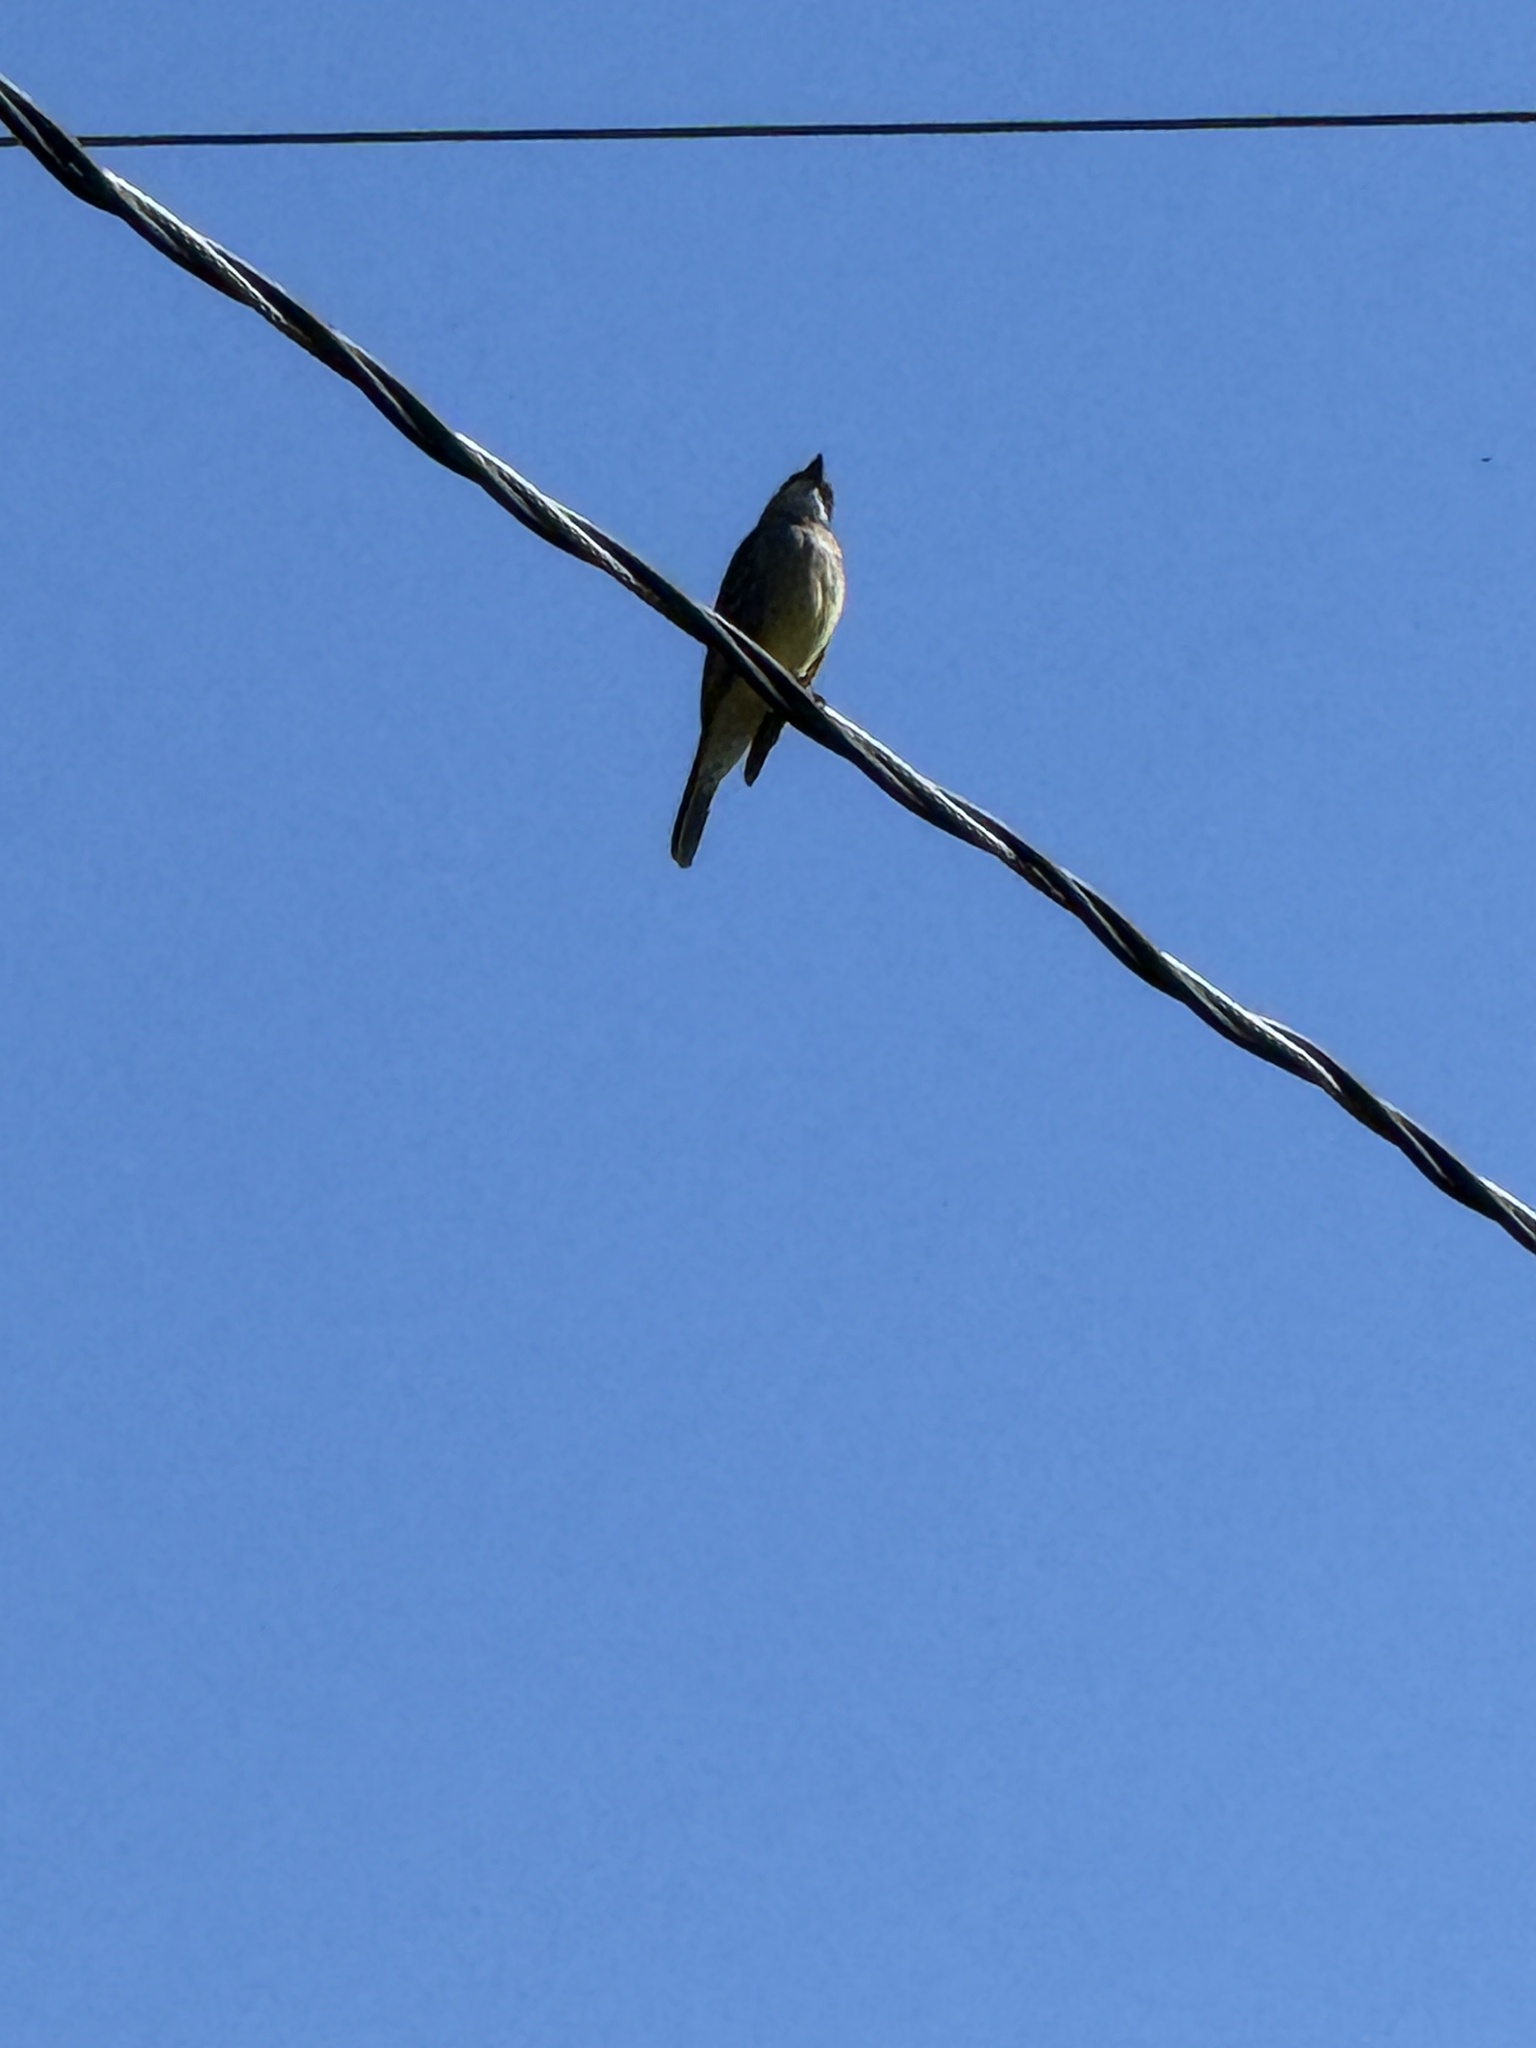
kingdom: Animalia
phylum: Chordata
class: Aves
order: Passeriformes
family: Tyrannidae
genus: Tyrannus
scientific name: Tyrannus vociferans
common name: Cassin's kingbird
